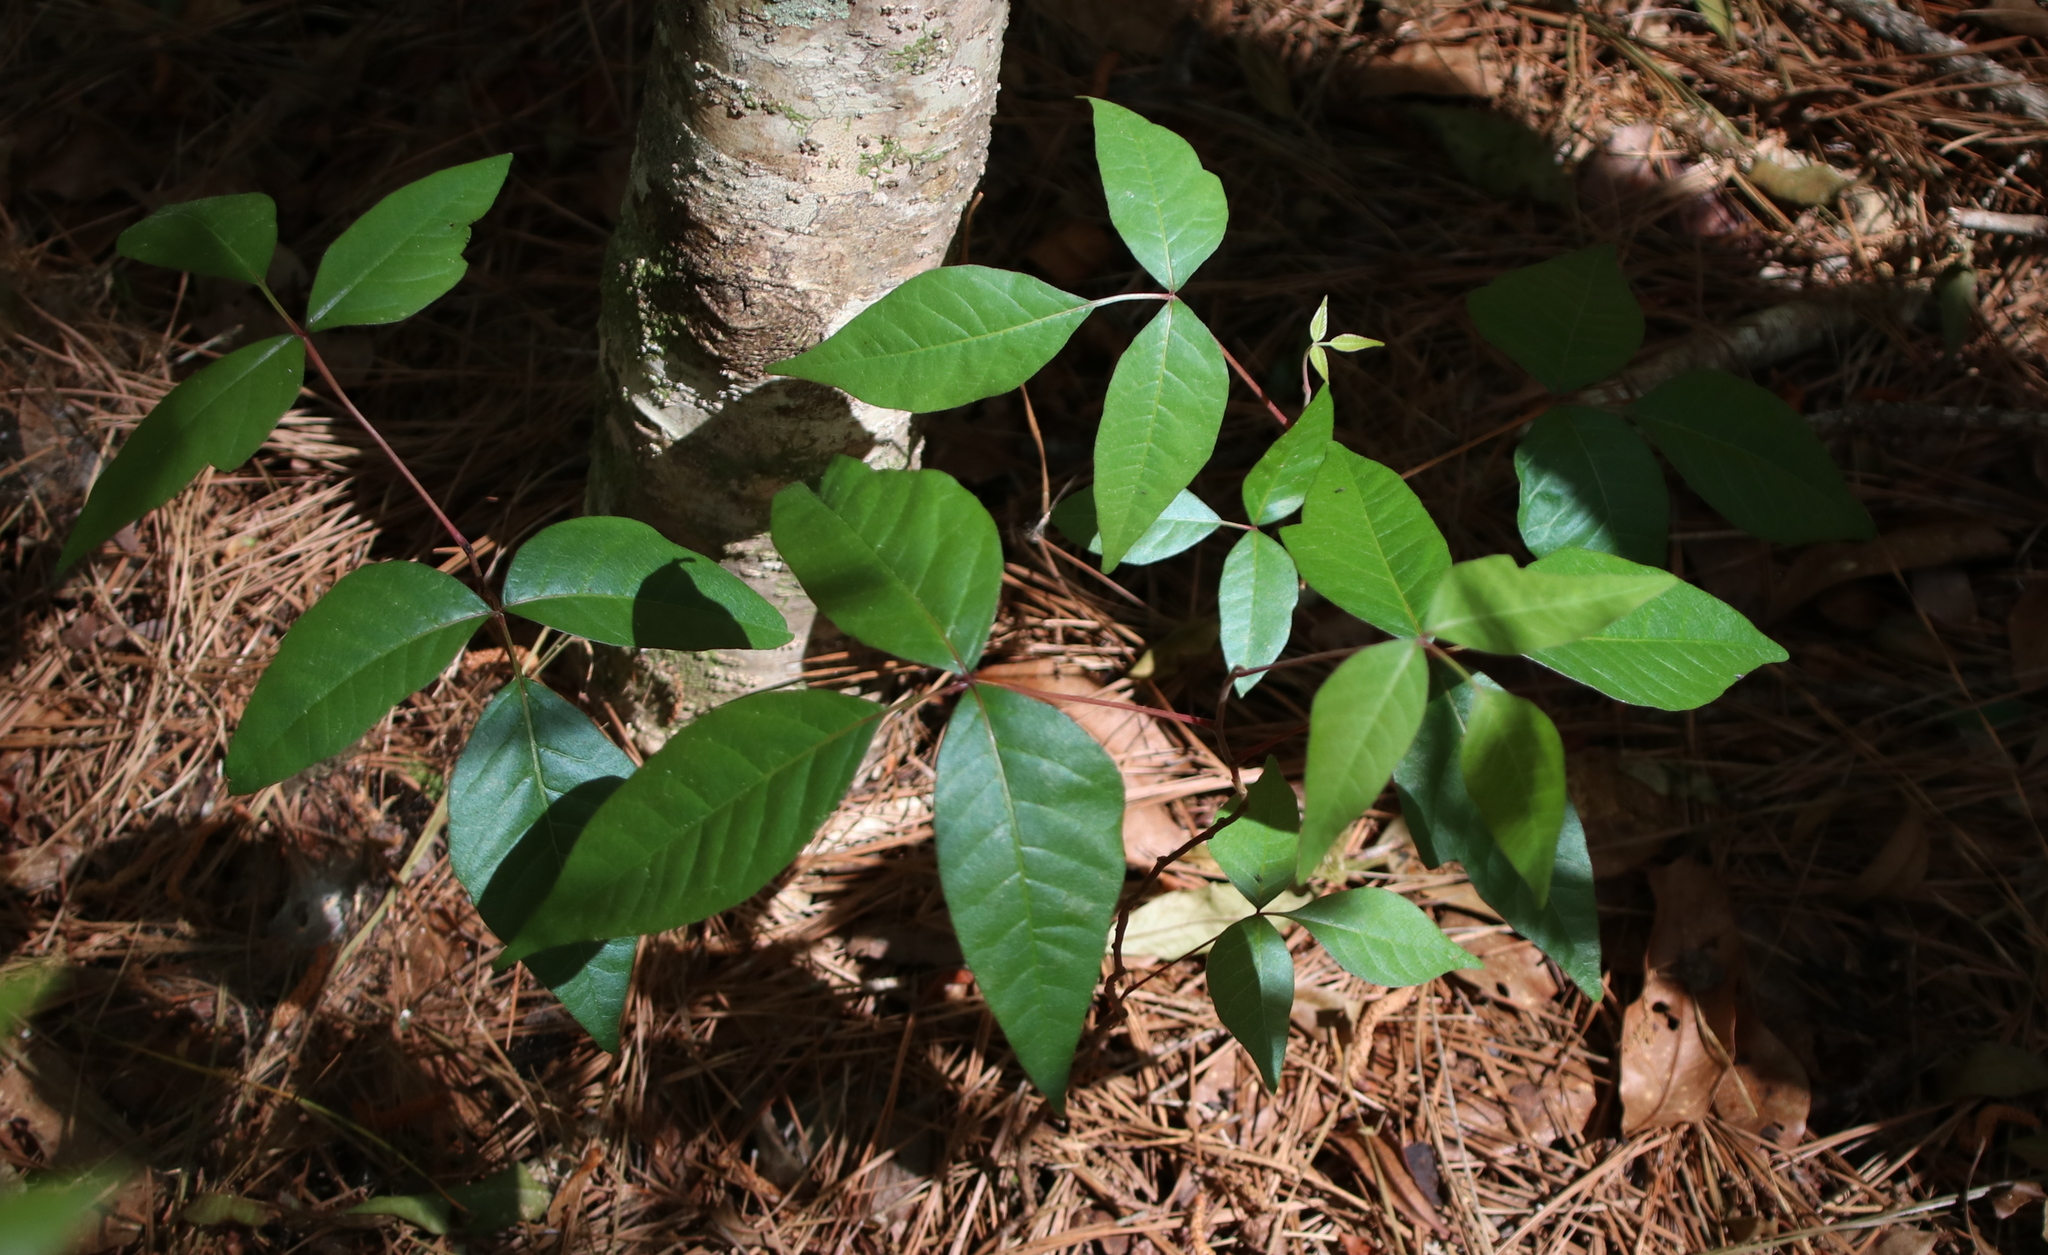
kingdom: Plantae
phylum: Tracheophyta
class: Magnoliopsida
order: Sapindales
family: Anacardiaceae
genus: Toxicodendron
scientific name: Toxicodendron radicans
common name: Poison ivy
